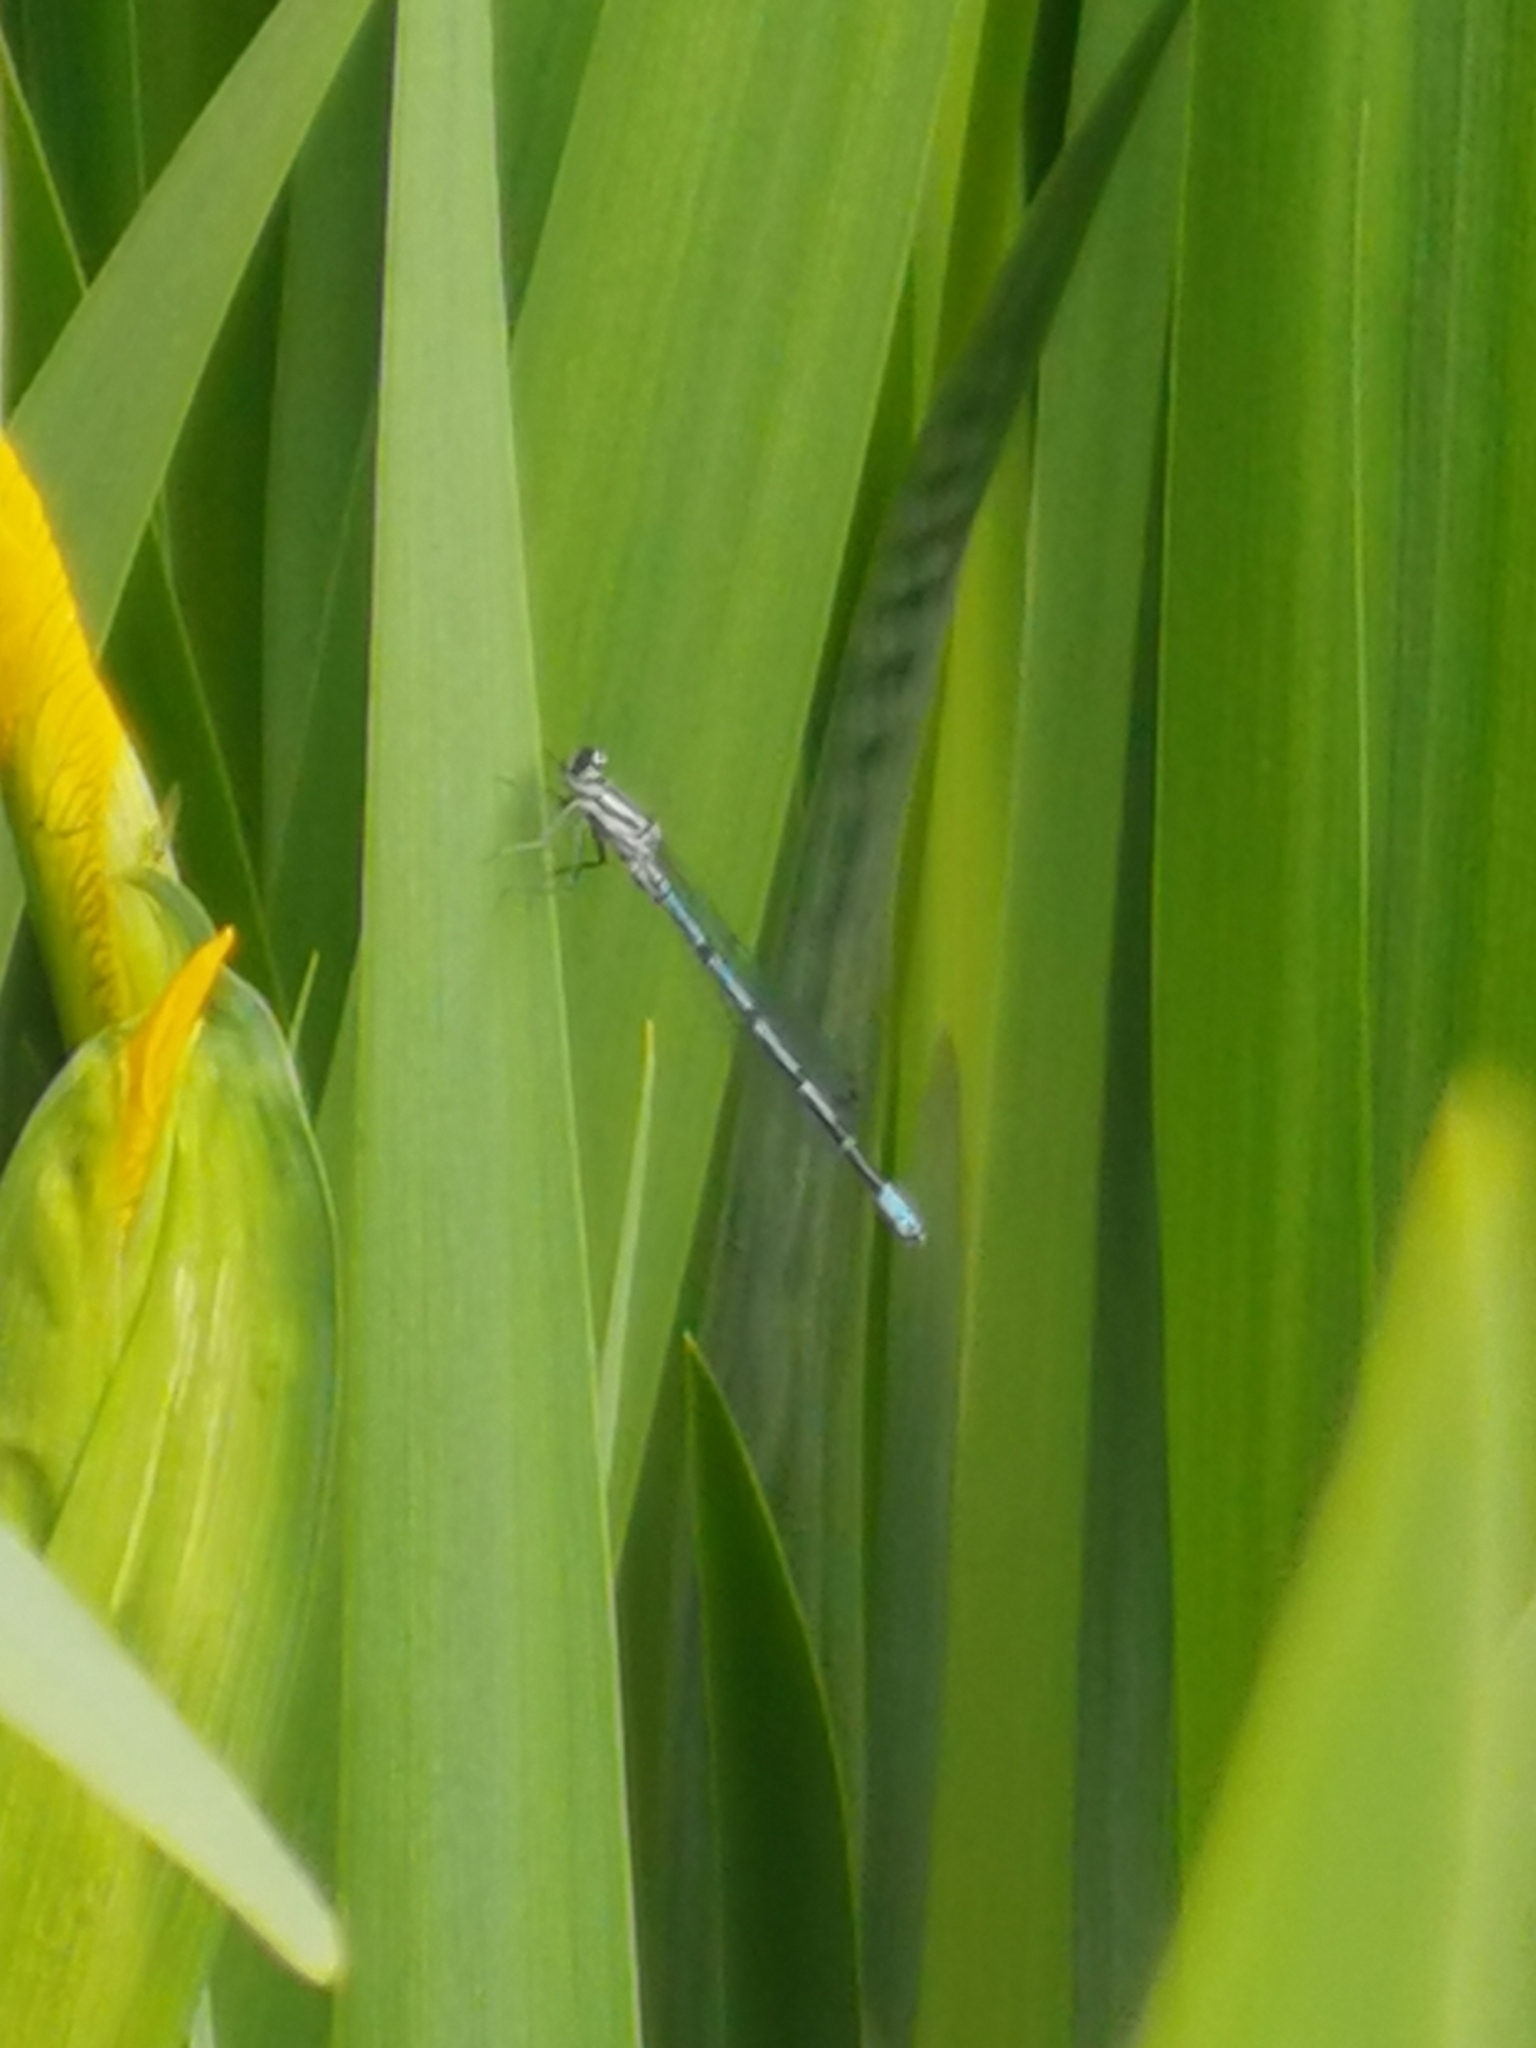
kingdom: Animalia
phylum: Arthropoda
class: Insecta
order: Odonata
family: Coenagrionidae
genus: Coenagrion
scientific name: Coenagrion puella
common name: Azure damselfly
